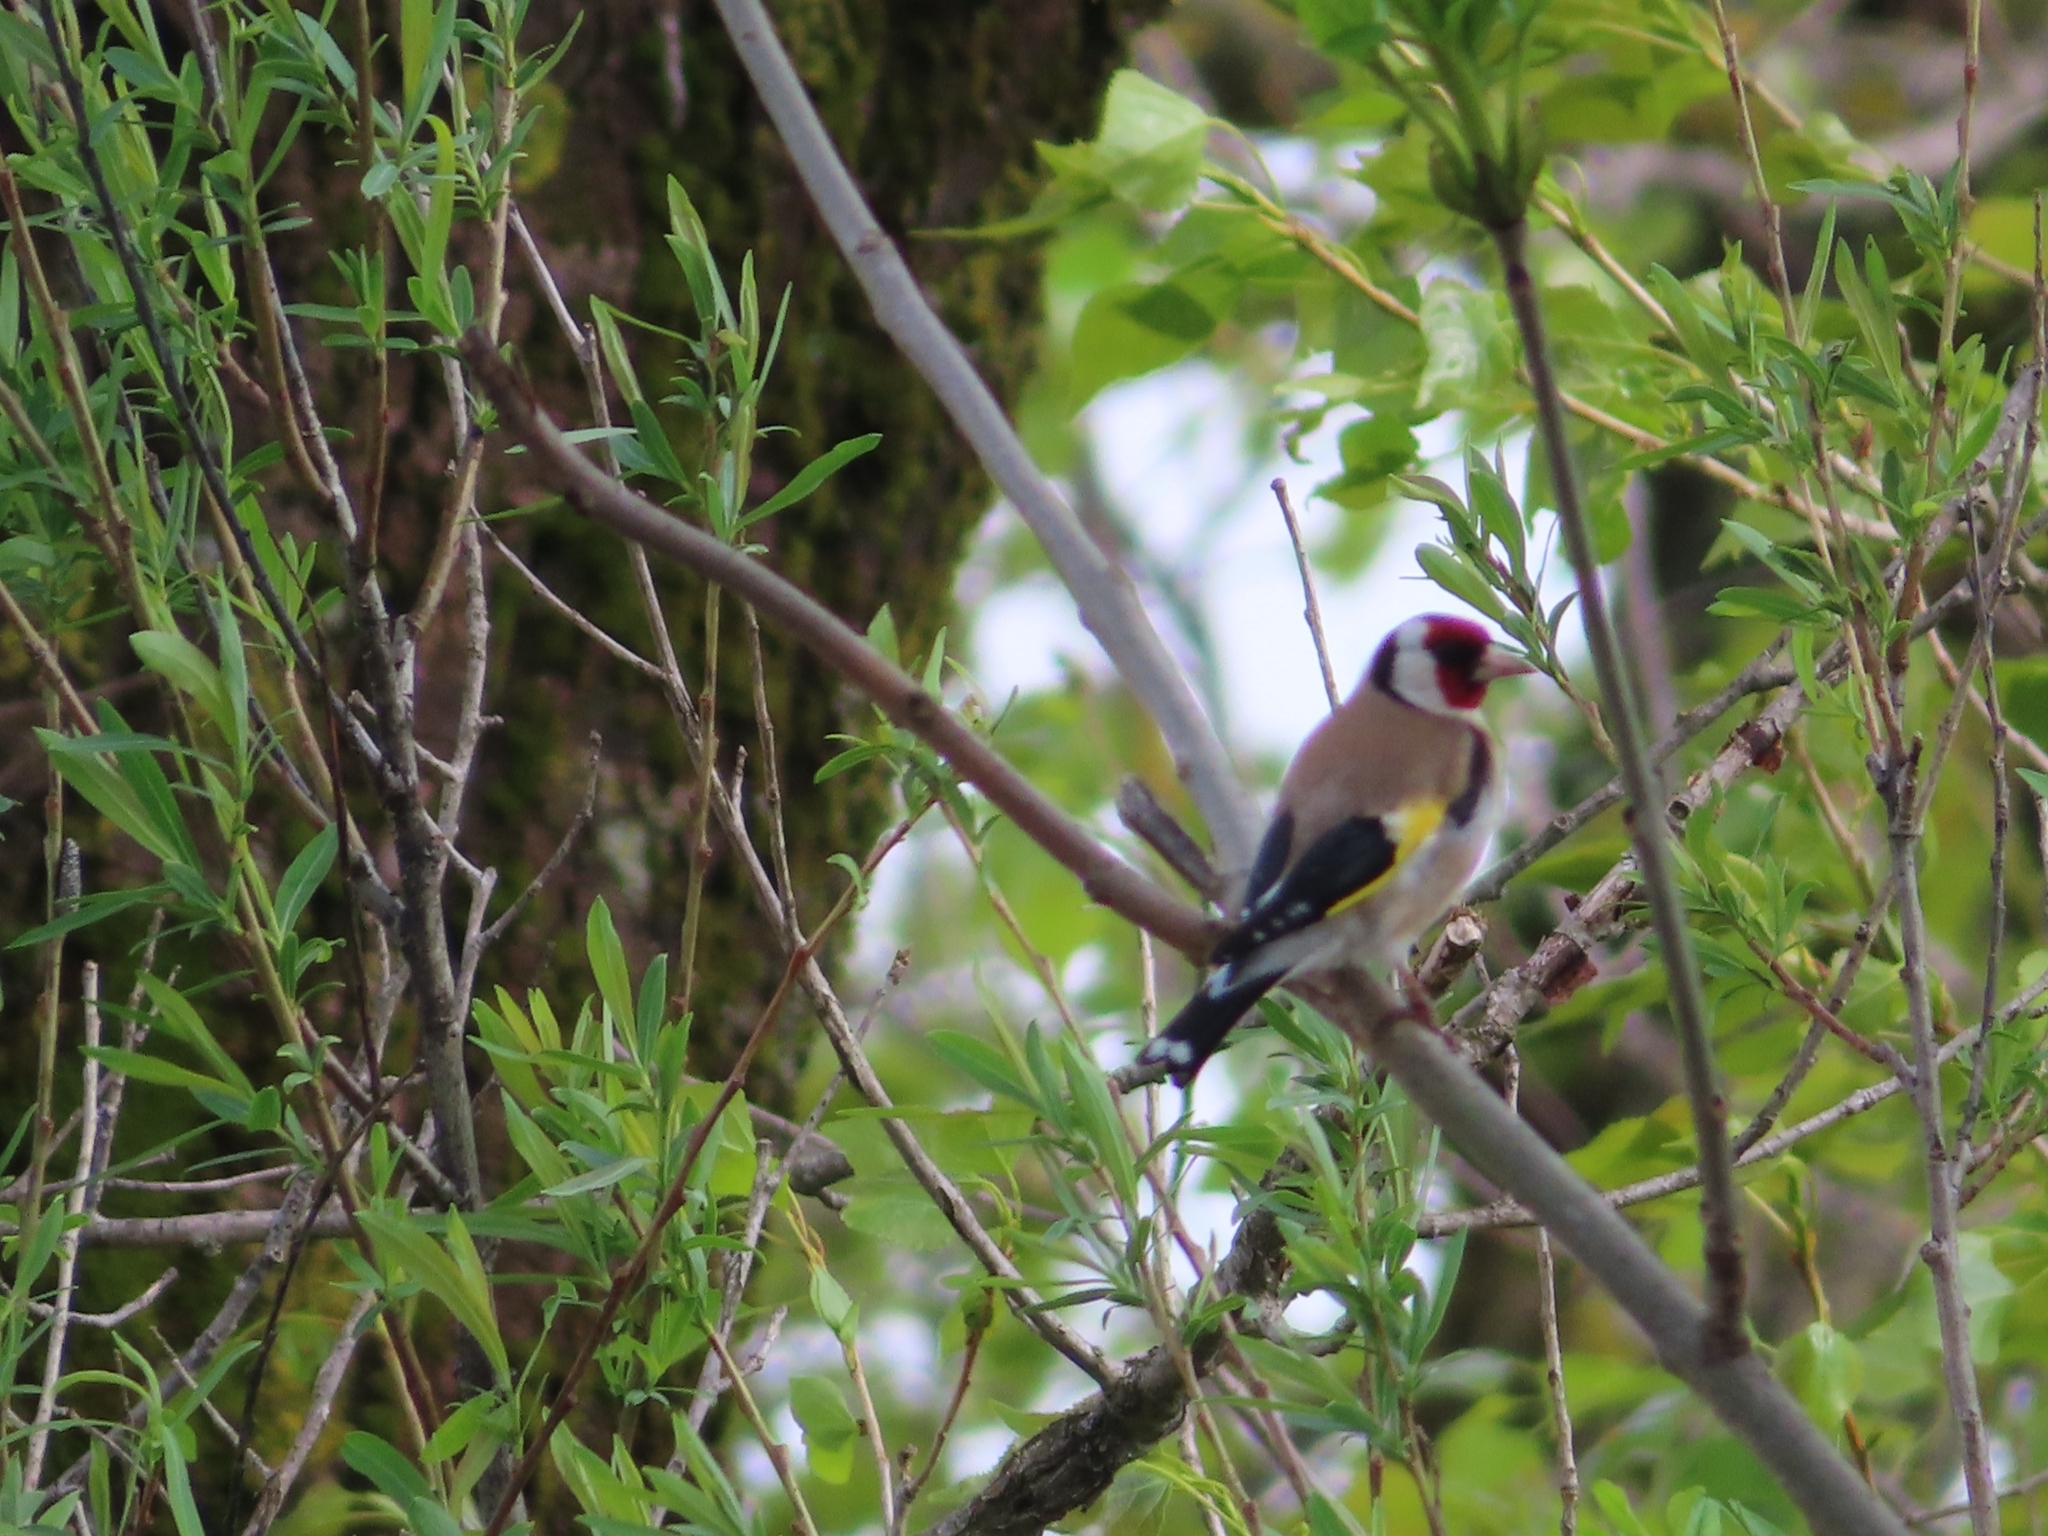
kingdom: Animalia
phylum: Chordata
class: Aves
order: Passeriformes
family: Fringillidae
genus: Carduelis
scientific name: Carduelis carduelis
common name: European goldfinch
